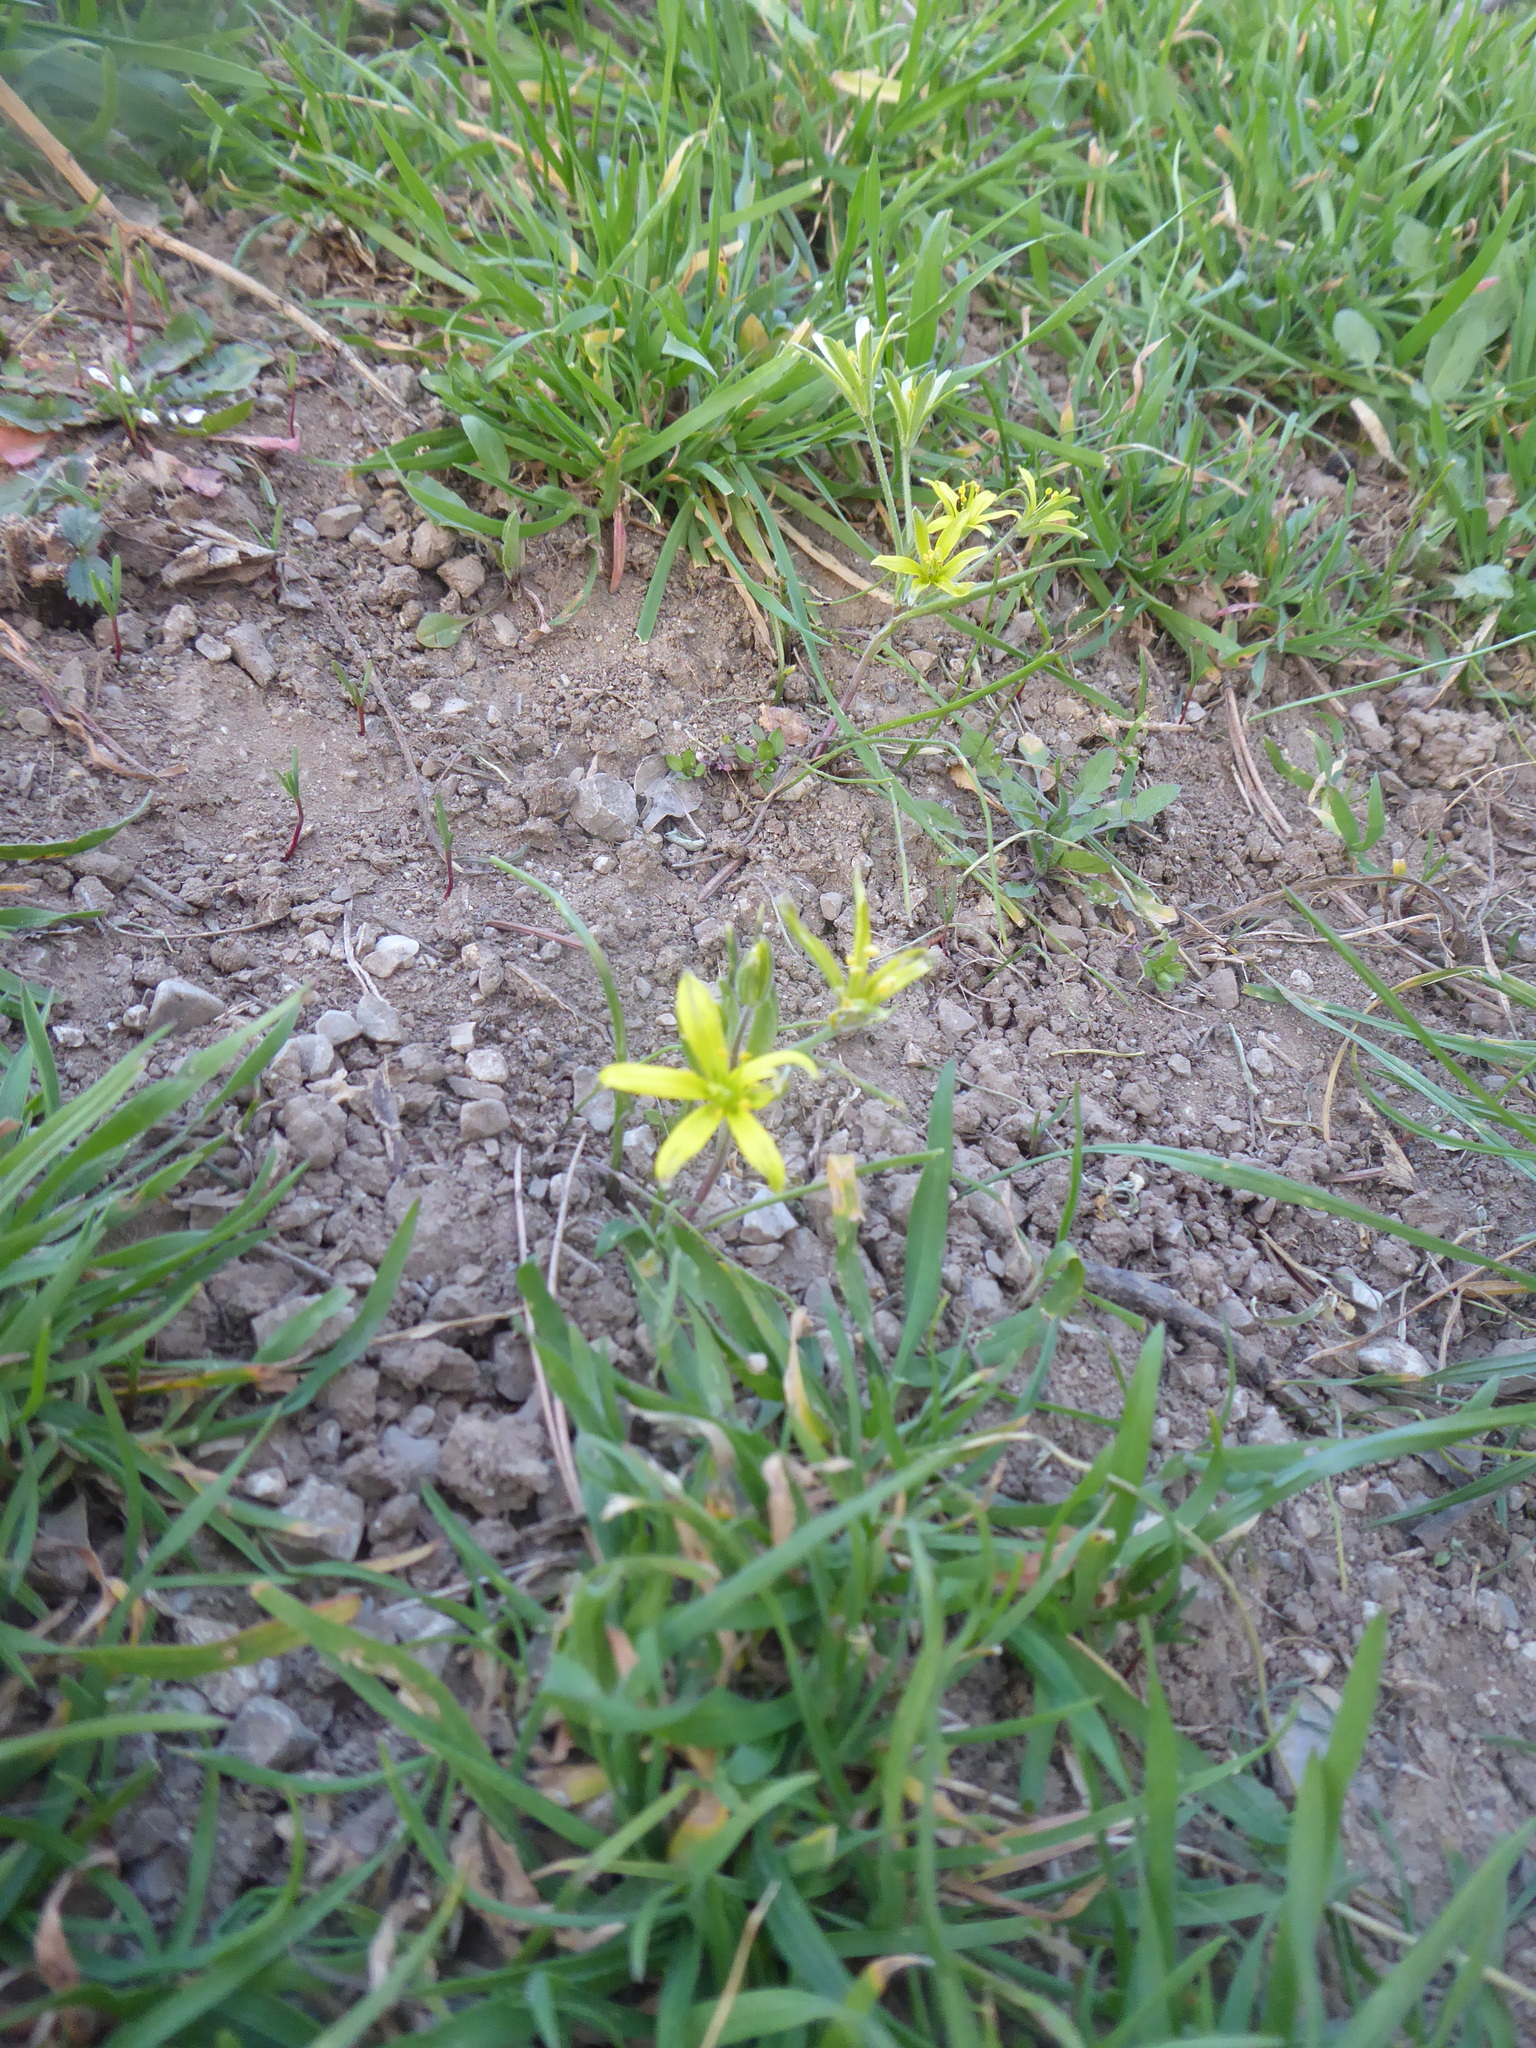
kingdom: Plantae
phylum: Tracheophyta
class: Liliopsida
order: Liliales
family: Liliaceae
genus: Gagea
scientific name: Gagea villosa
